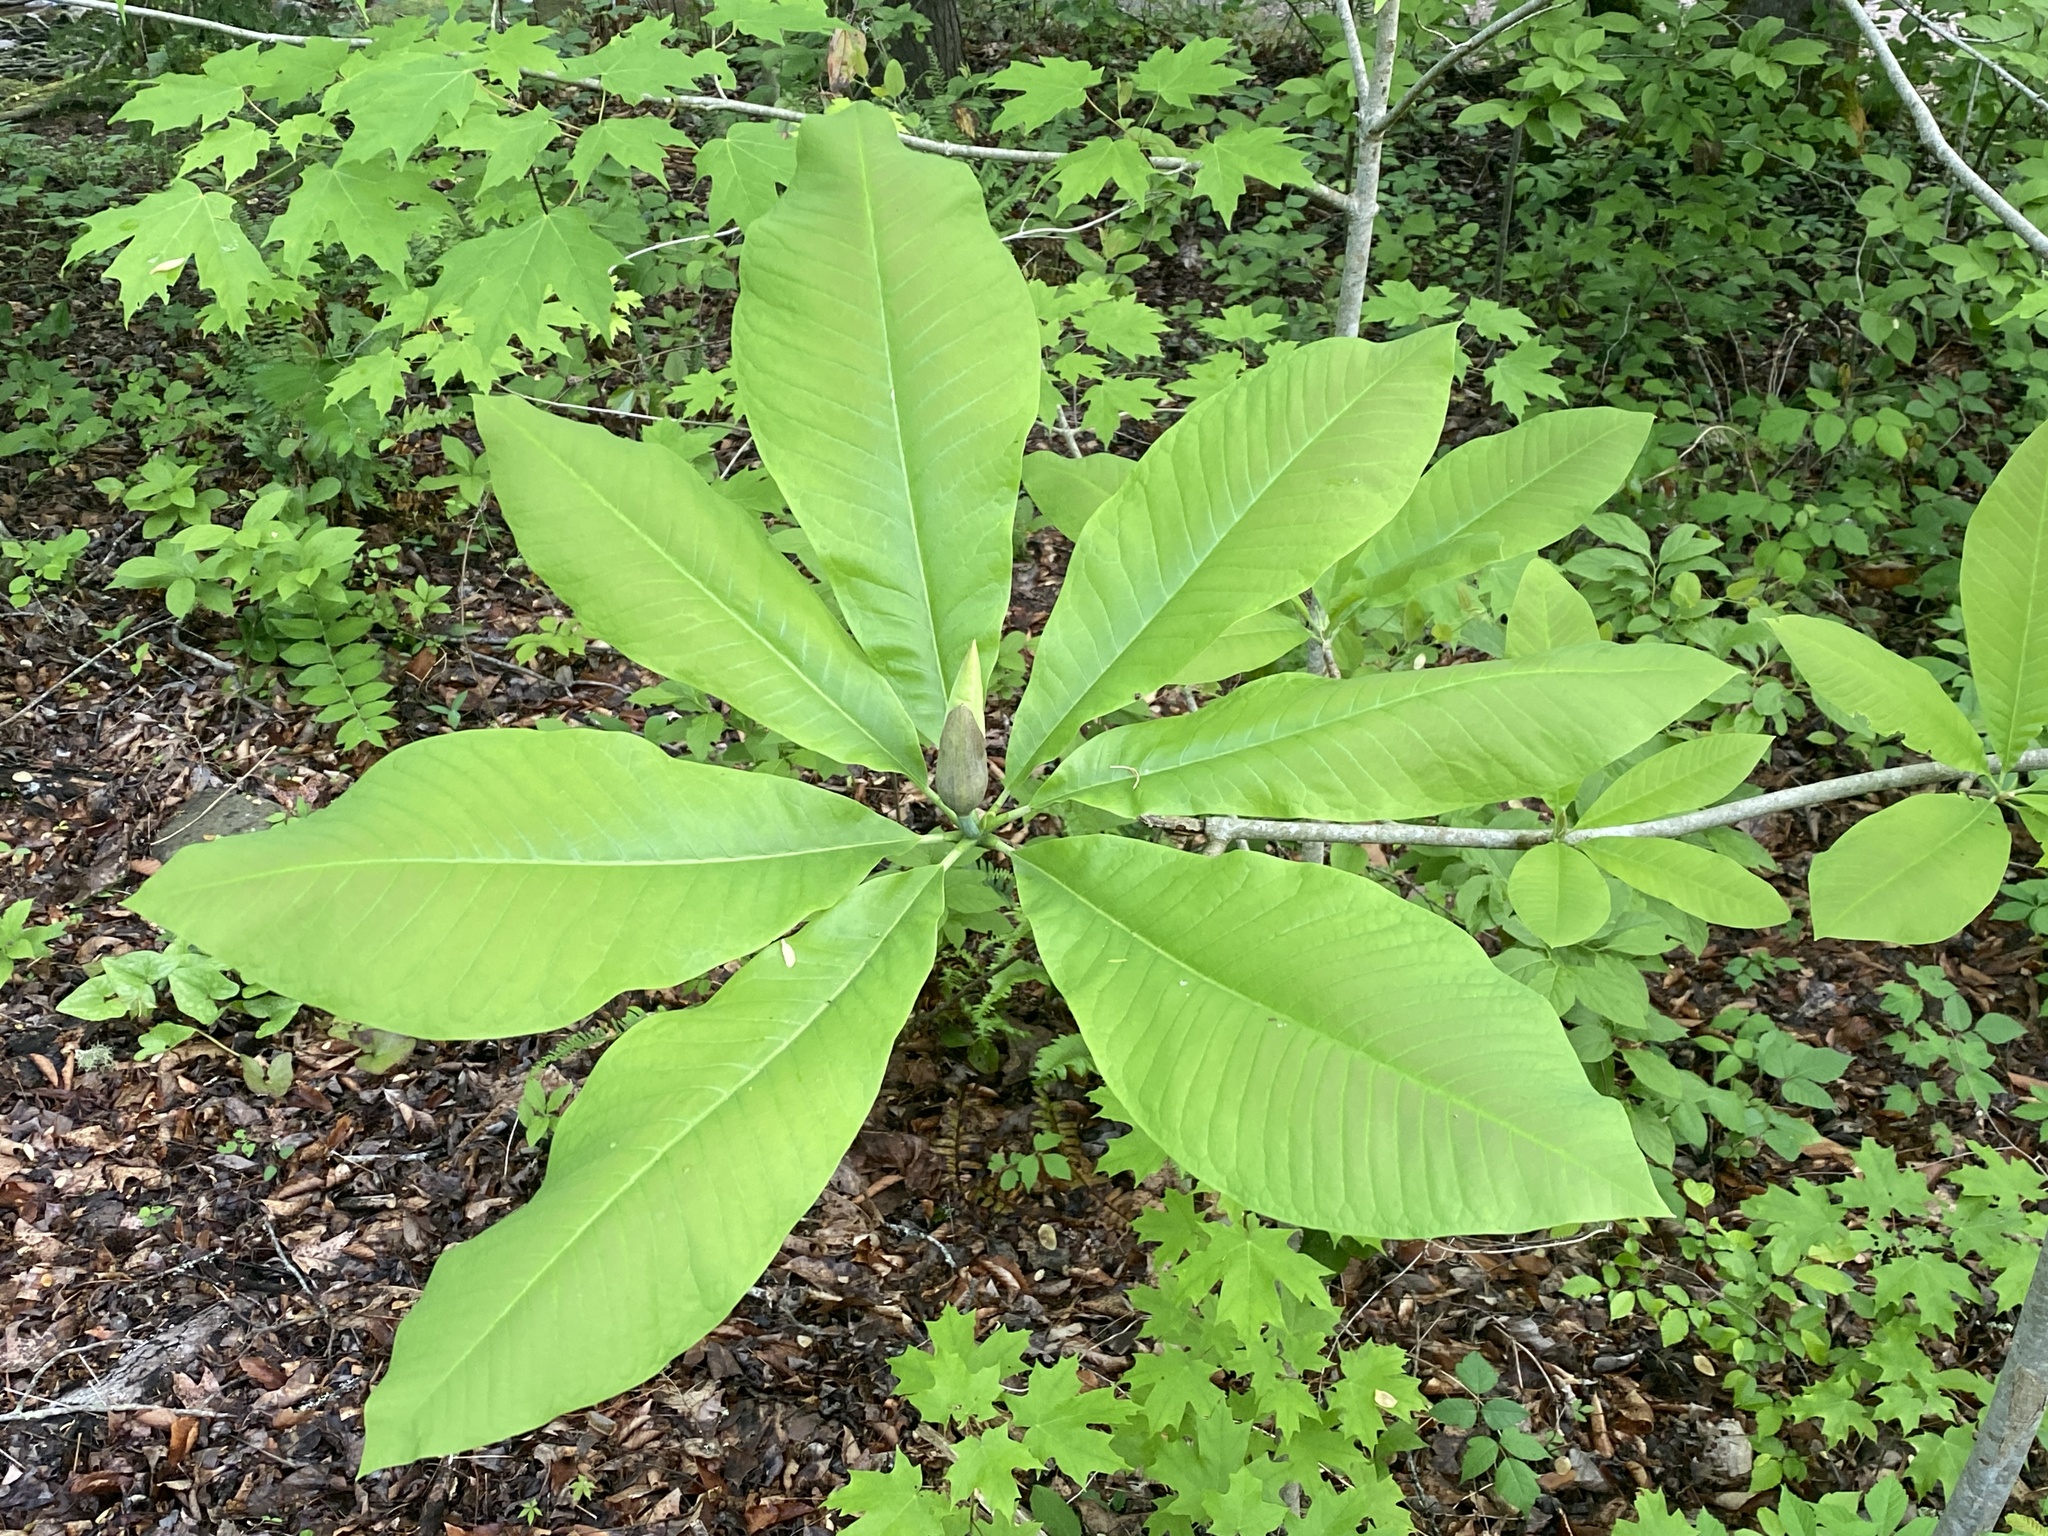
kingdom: Plantae
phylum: Tracheophyta
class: Magnoliopsida
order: Magnoliales
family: Magnoliaceae
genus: Magnolia
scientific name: Magnolia tripetala
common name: Umbrella magnolia
